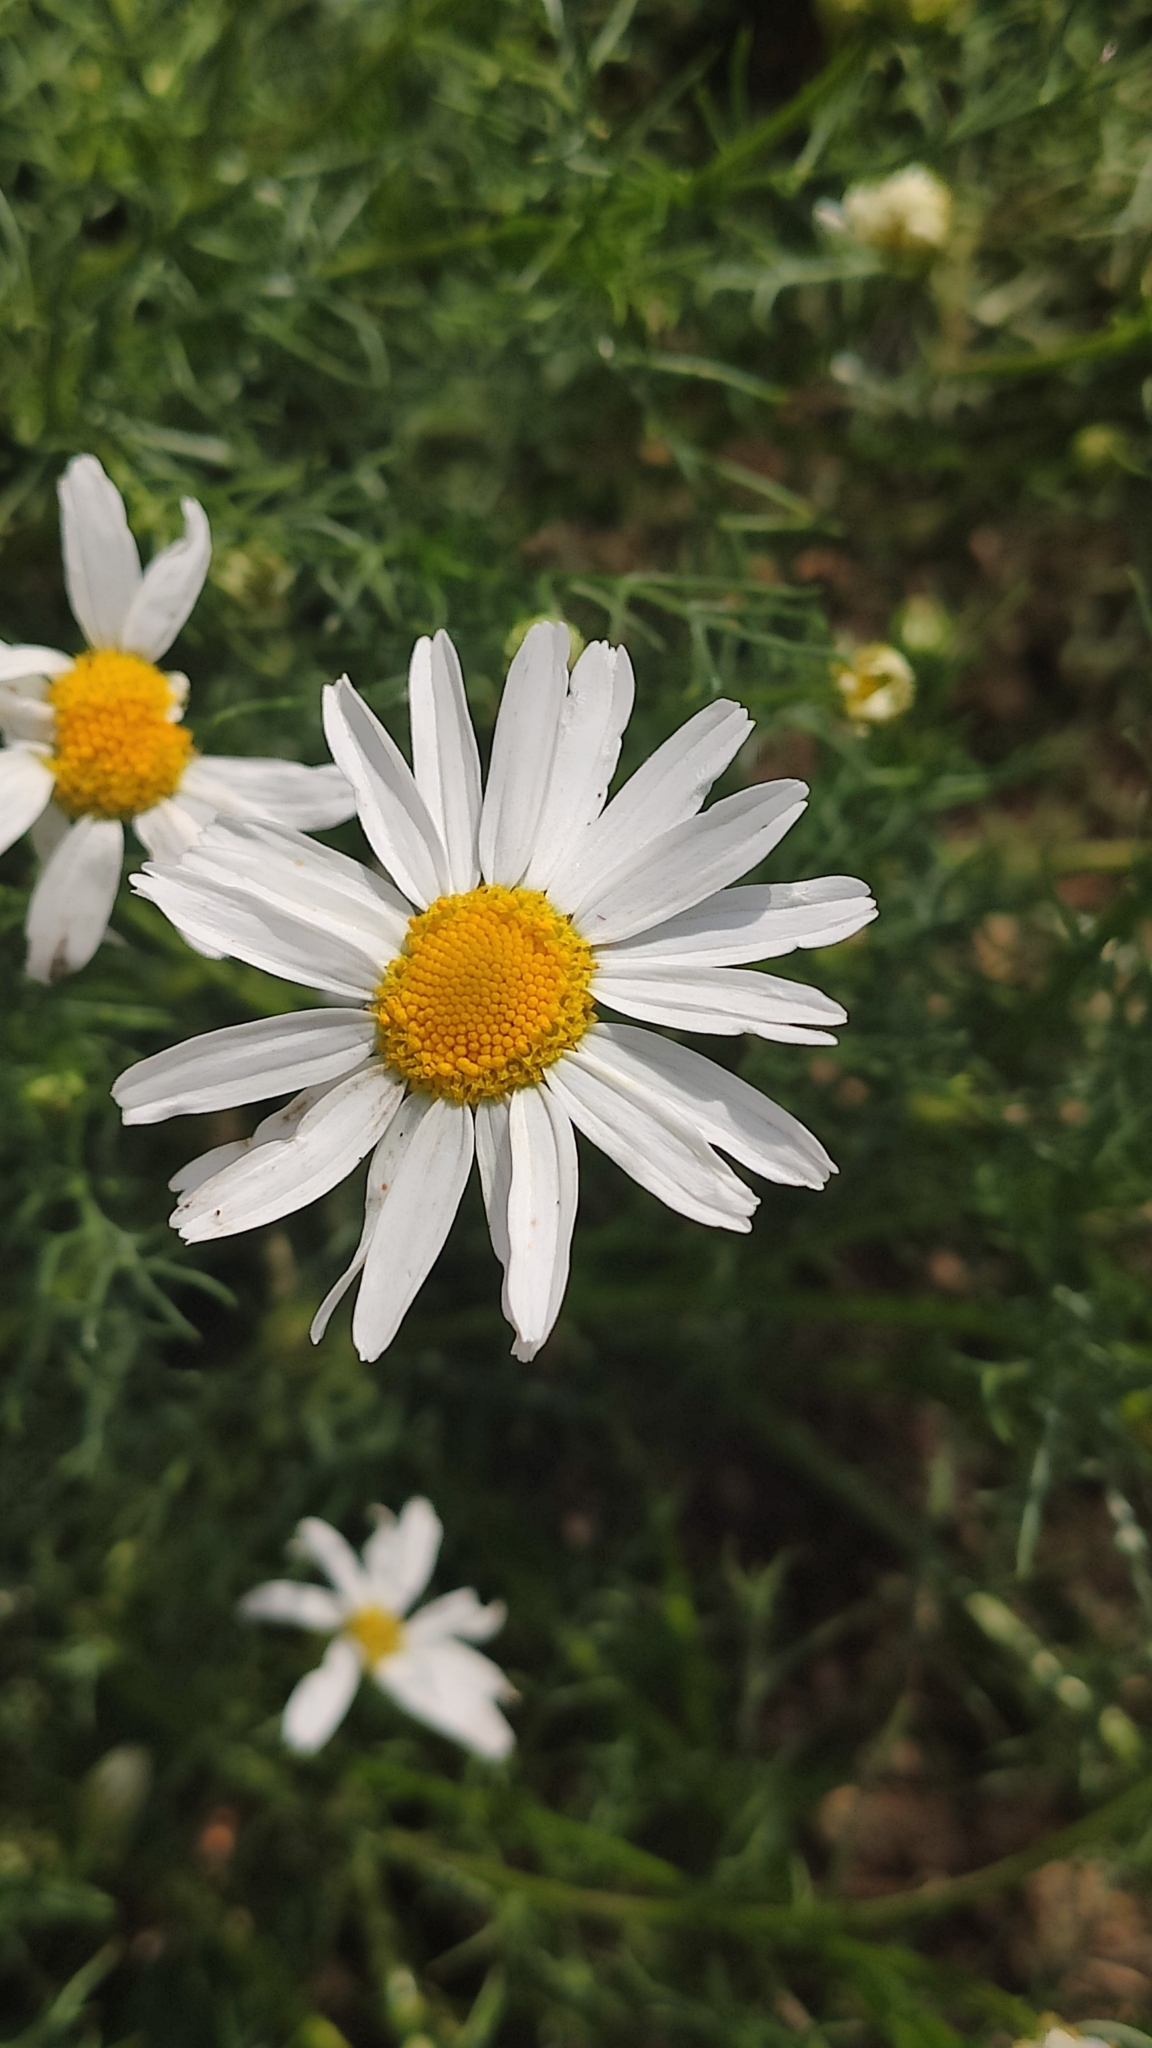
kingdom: Plantae
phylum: Tracheophyta
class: Magnoliopsida
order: Asterales
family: Asteraceae
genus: Tripleurospermum
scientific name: Tripleurospermum inodorum
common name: Scentless mayweed
